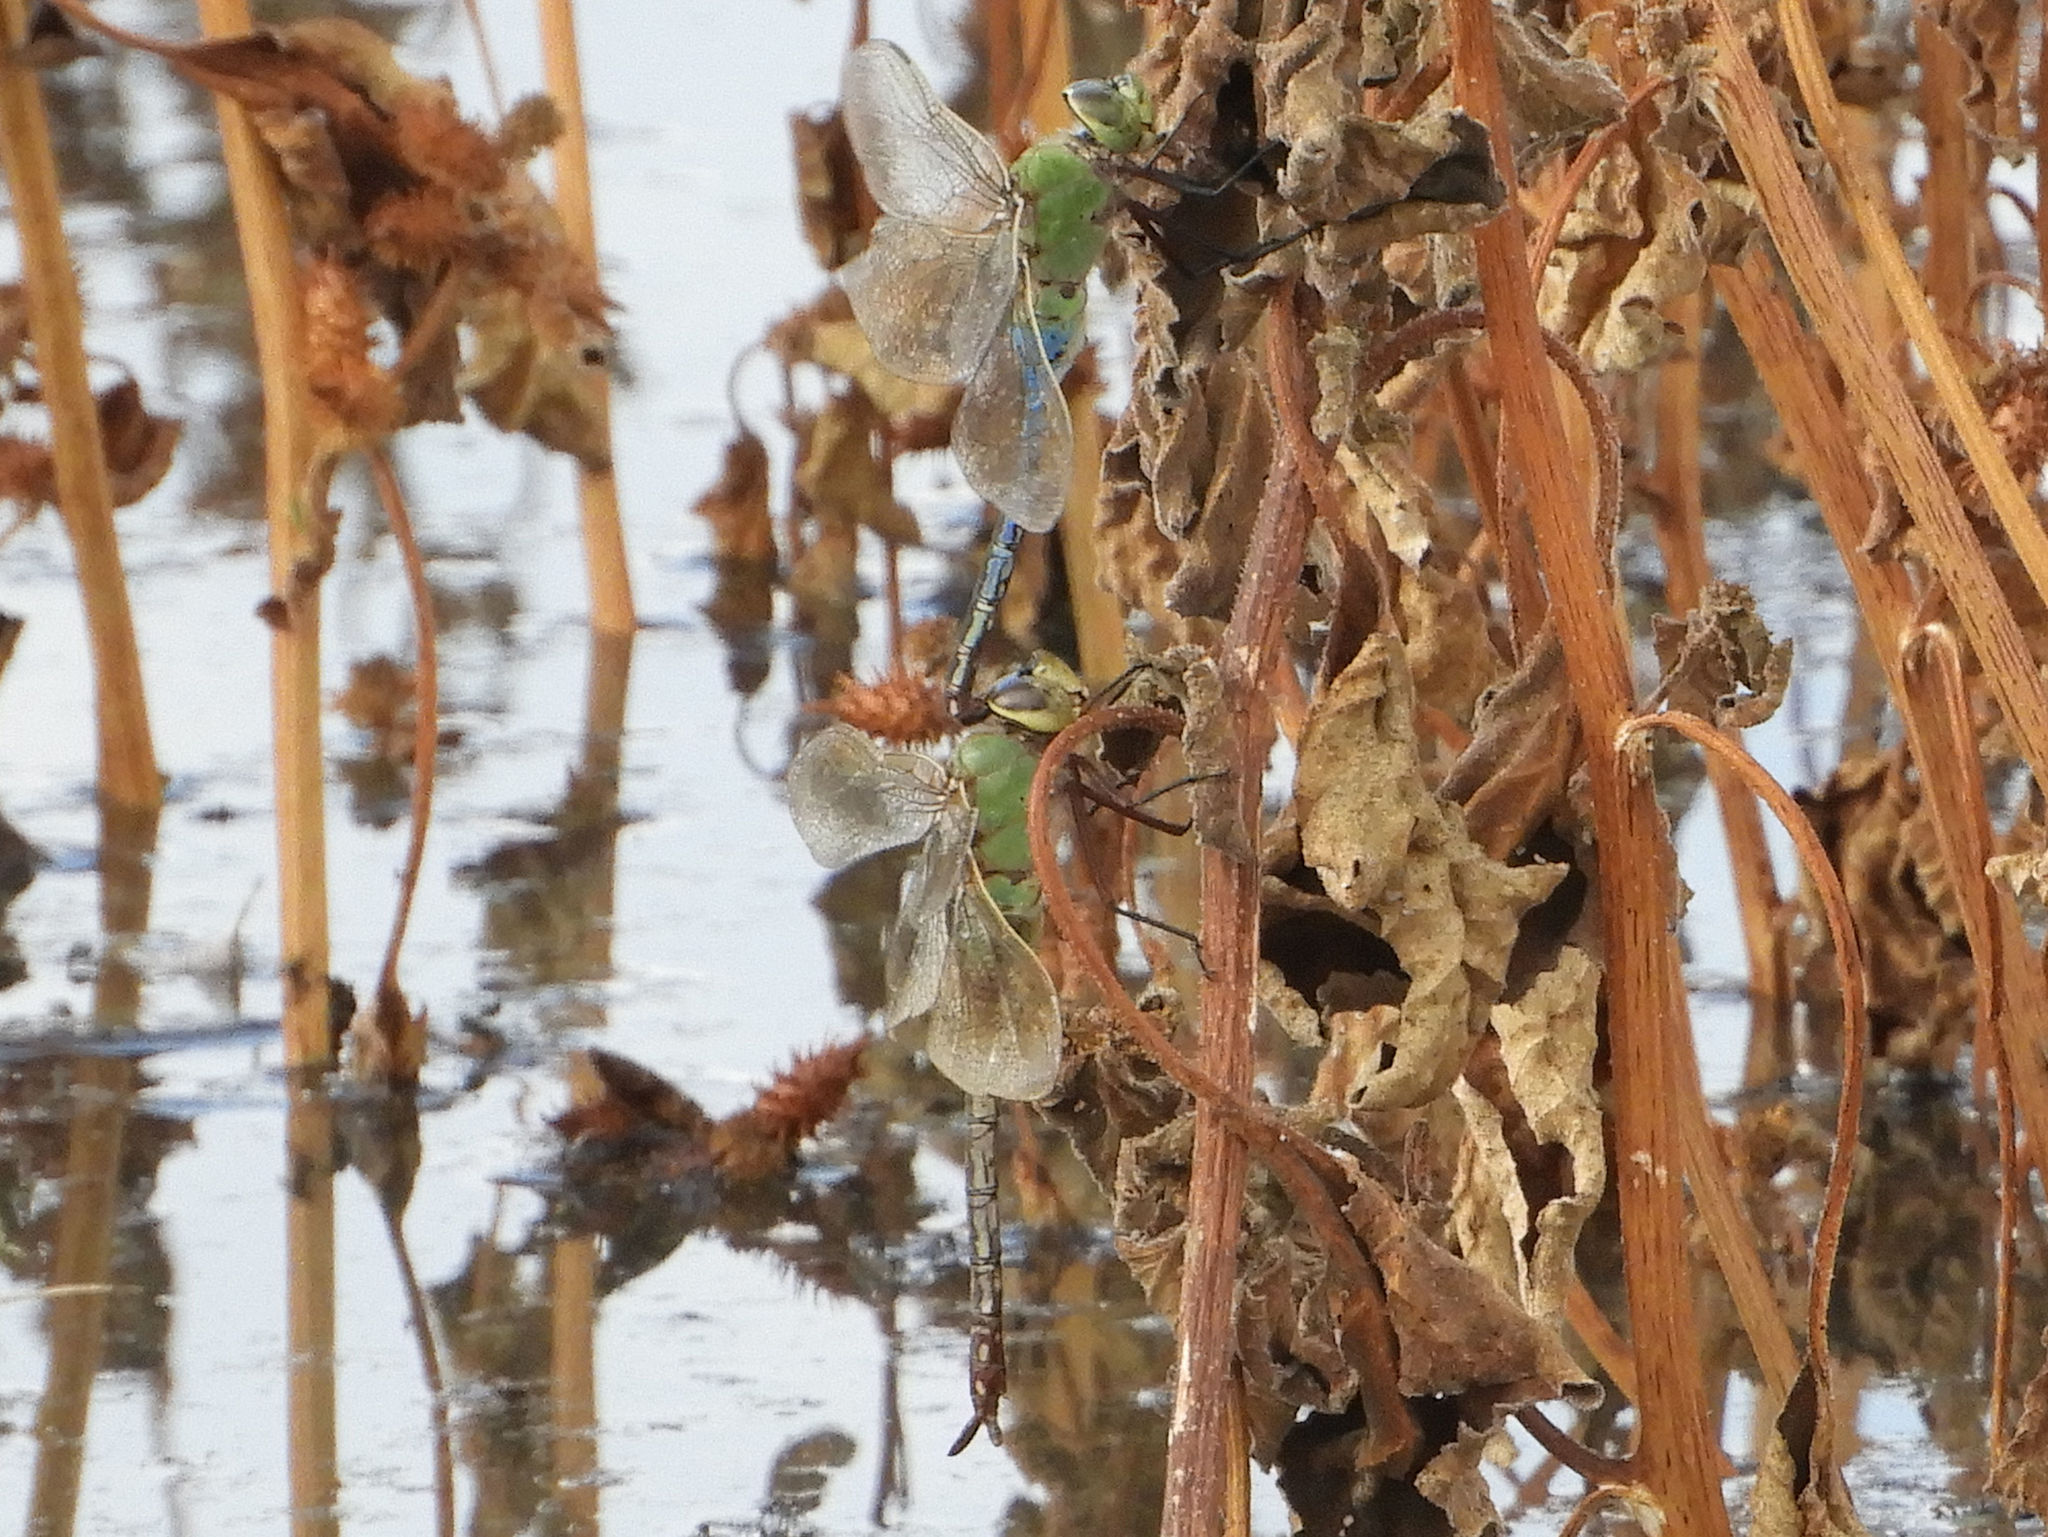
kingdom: Animalia
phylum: Arthropoda
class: Insecta
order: Odonata
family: Aeshnidae
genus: Anax
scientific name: Anax junius
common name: Common green darner
